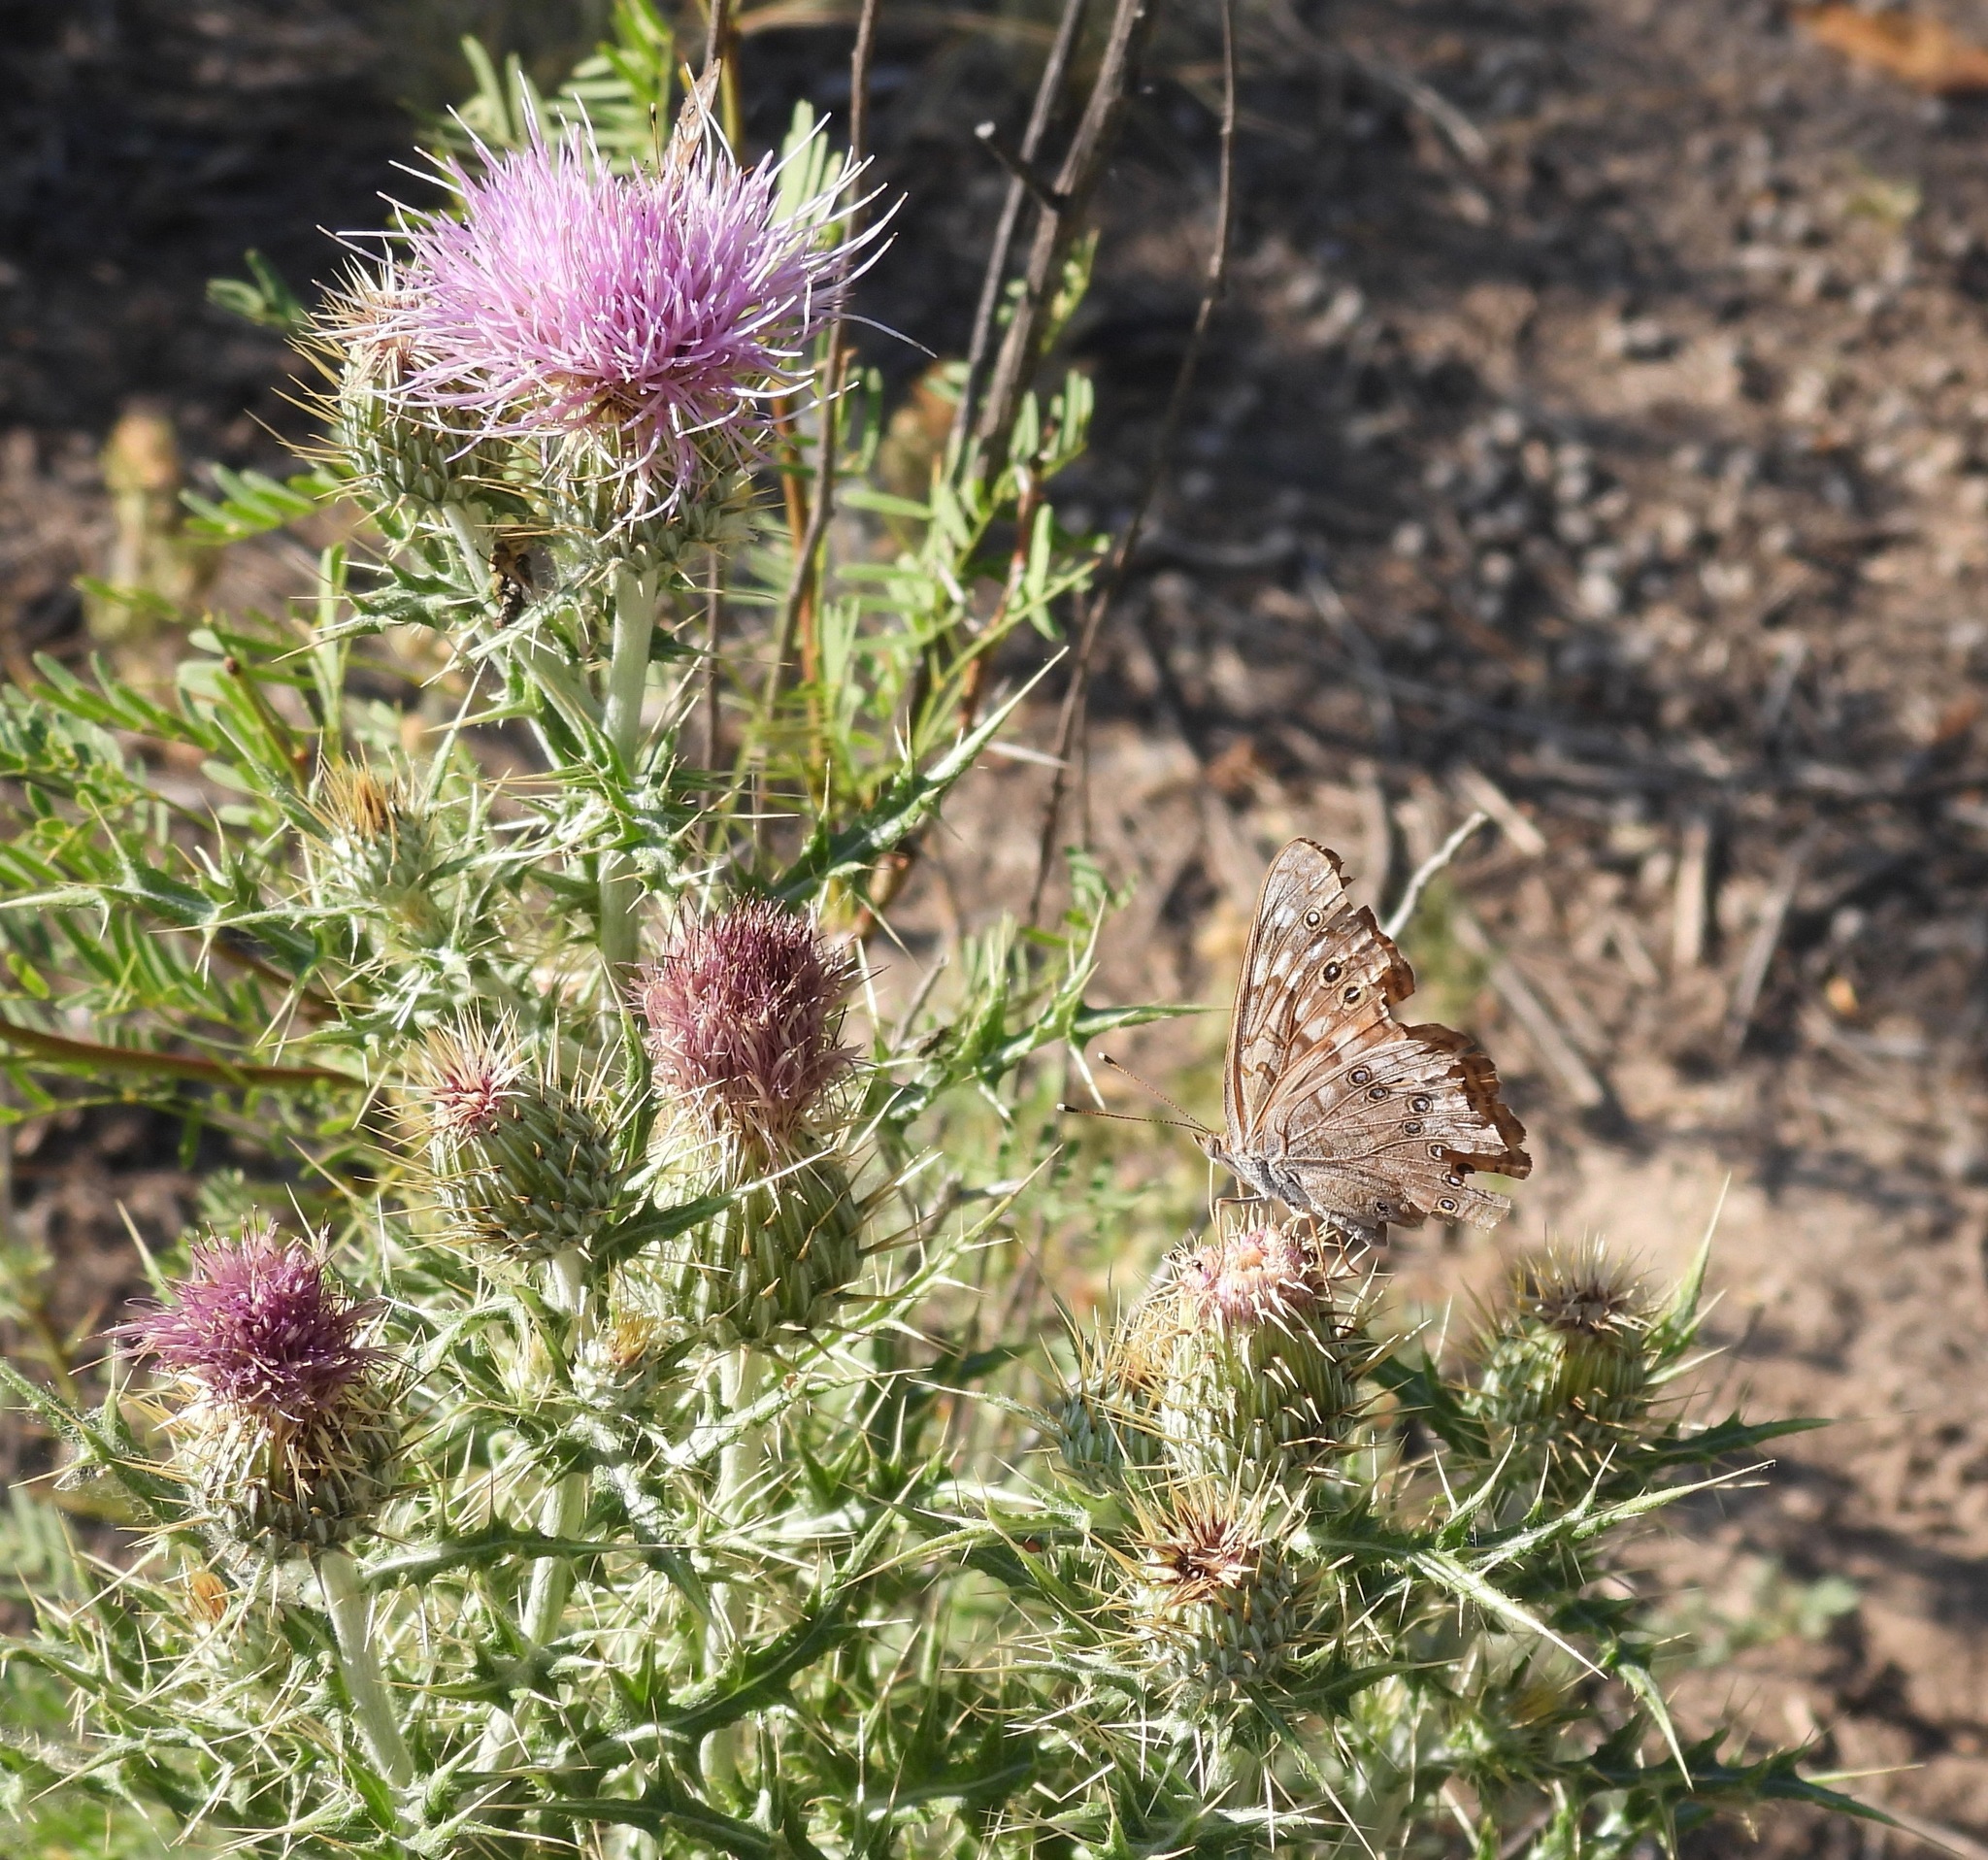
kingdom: Animalia
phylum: Arthropoda
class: Insecta
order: Lepidoptera
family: Nymphalidae
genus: Asterocampa
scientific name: Asterocampa celtis
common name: Hackberry emperor
